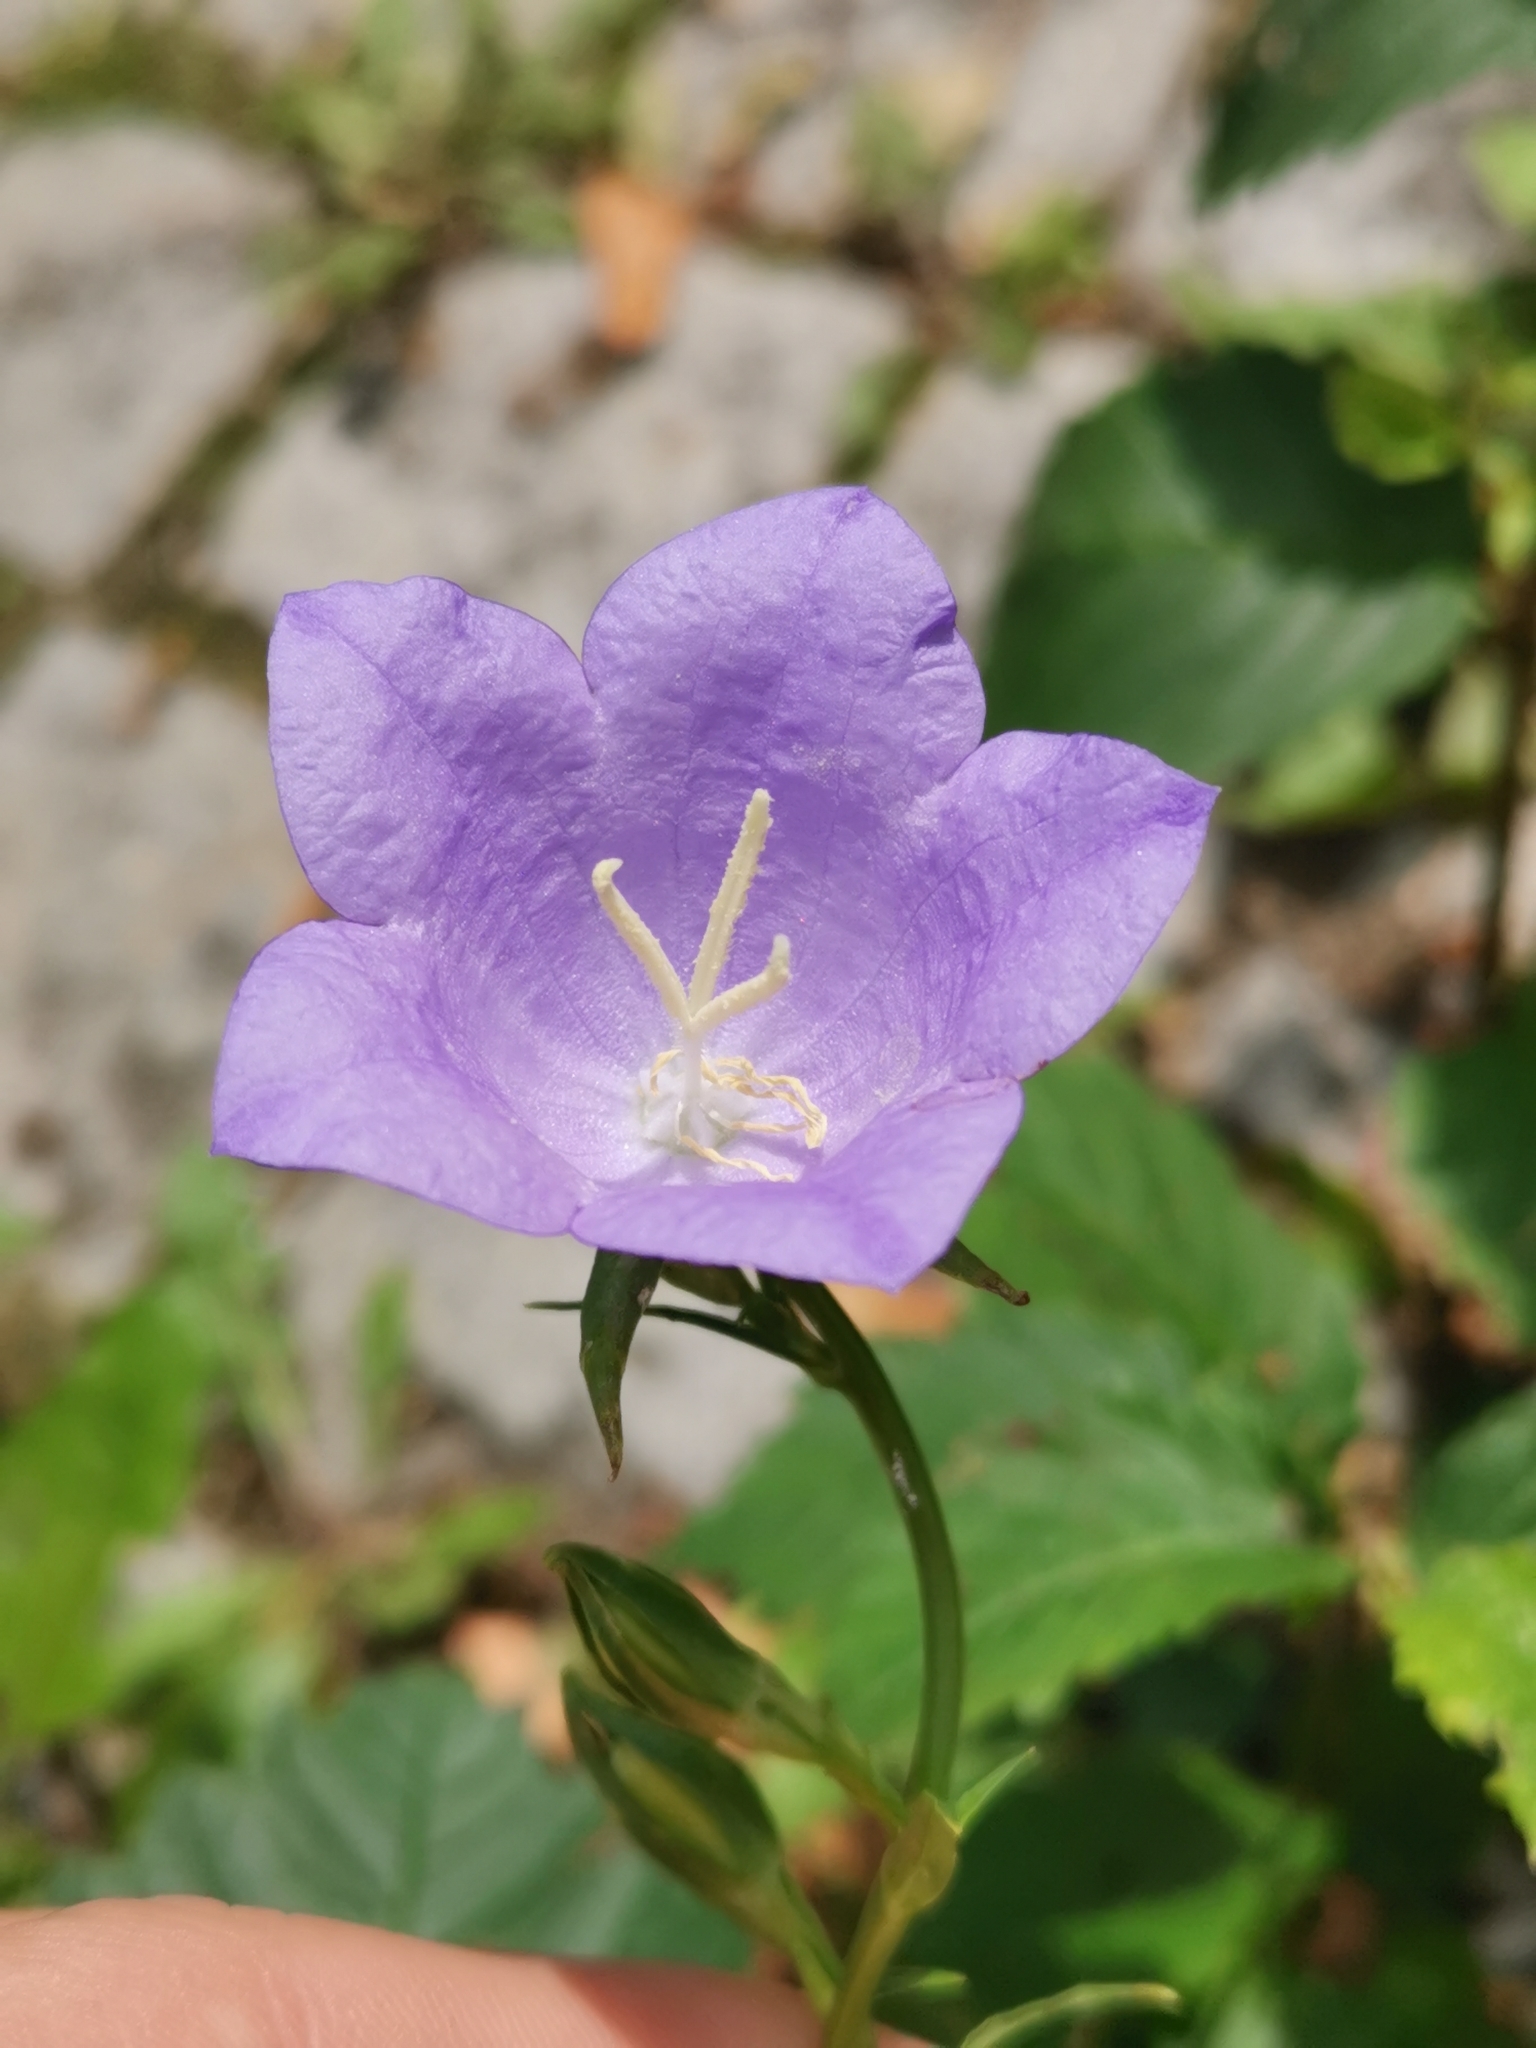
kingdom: Plantae
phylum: Tracheophyta
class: Magnoliopsida
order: Asterales
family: Campanulaceae
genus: Campanula
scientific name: Campanula persicifolia
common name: Peach-leaved bellflower
